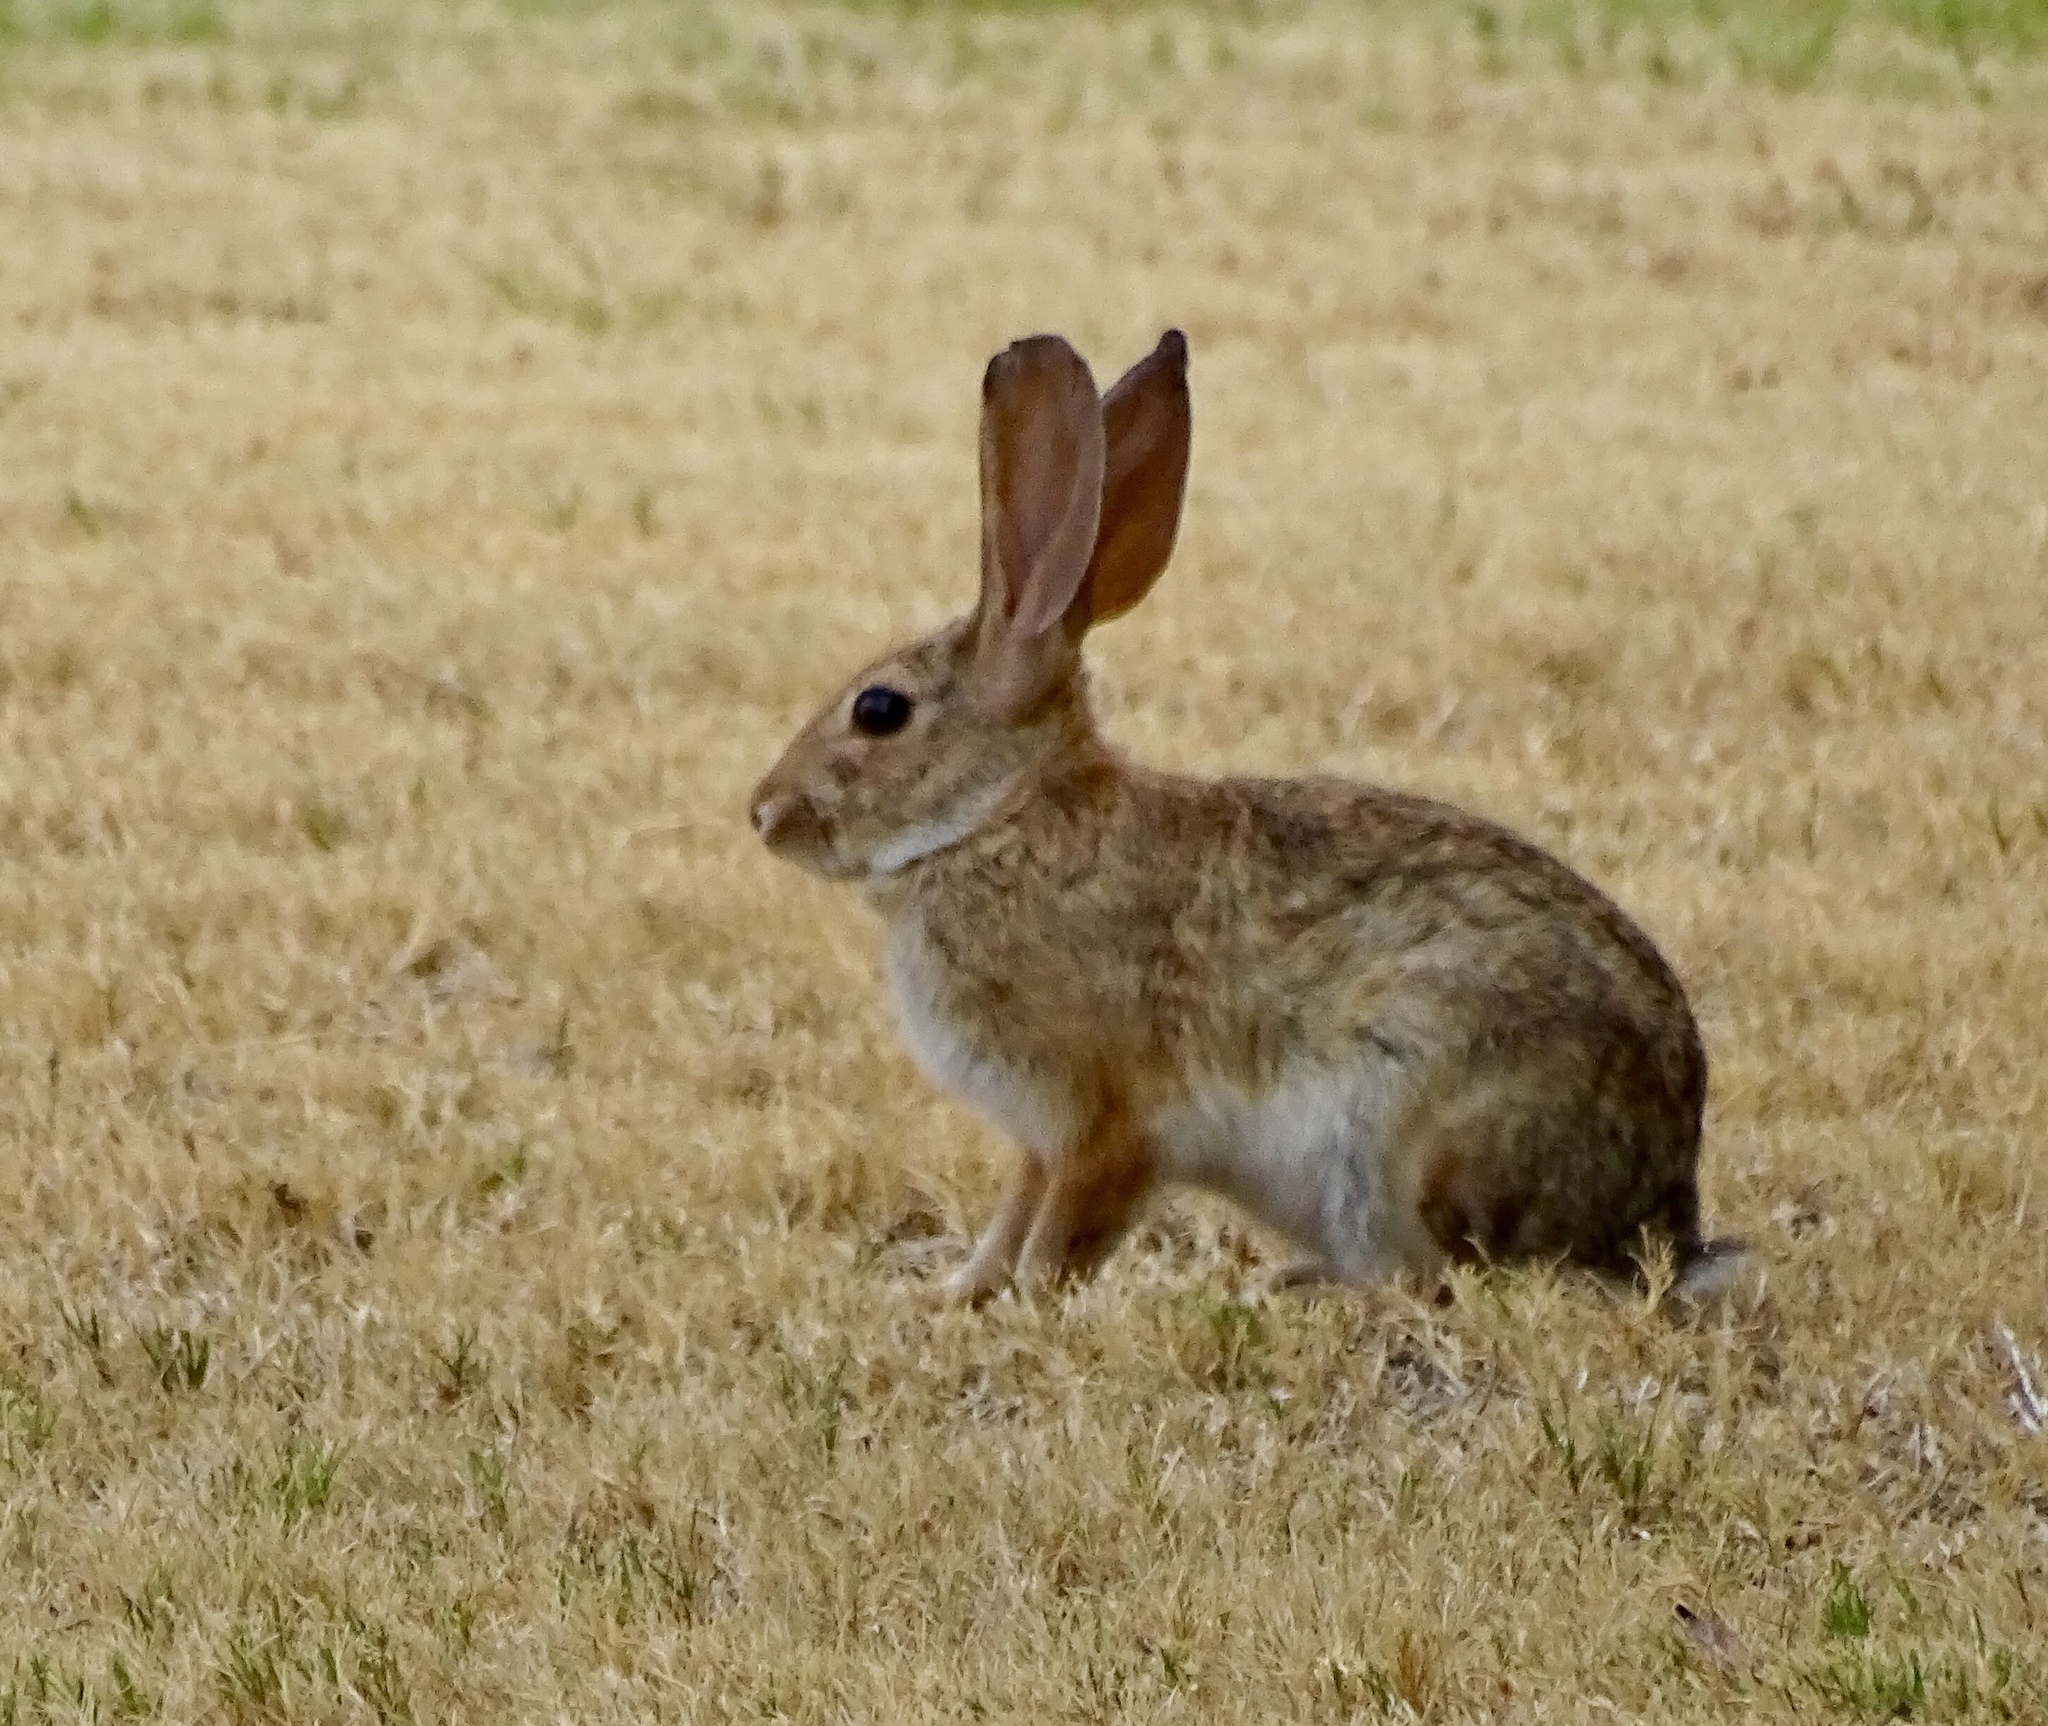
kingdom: Animalia
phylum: Chordata
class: Mammalia
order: Lagomorpha
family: Leporidae
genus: Sylvilagus
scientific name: Sylvilagus audubonii
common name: Desert cottontail
